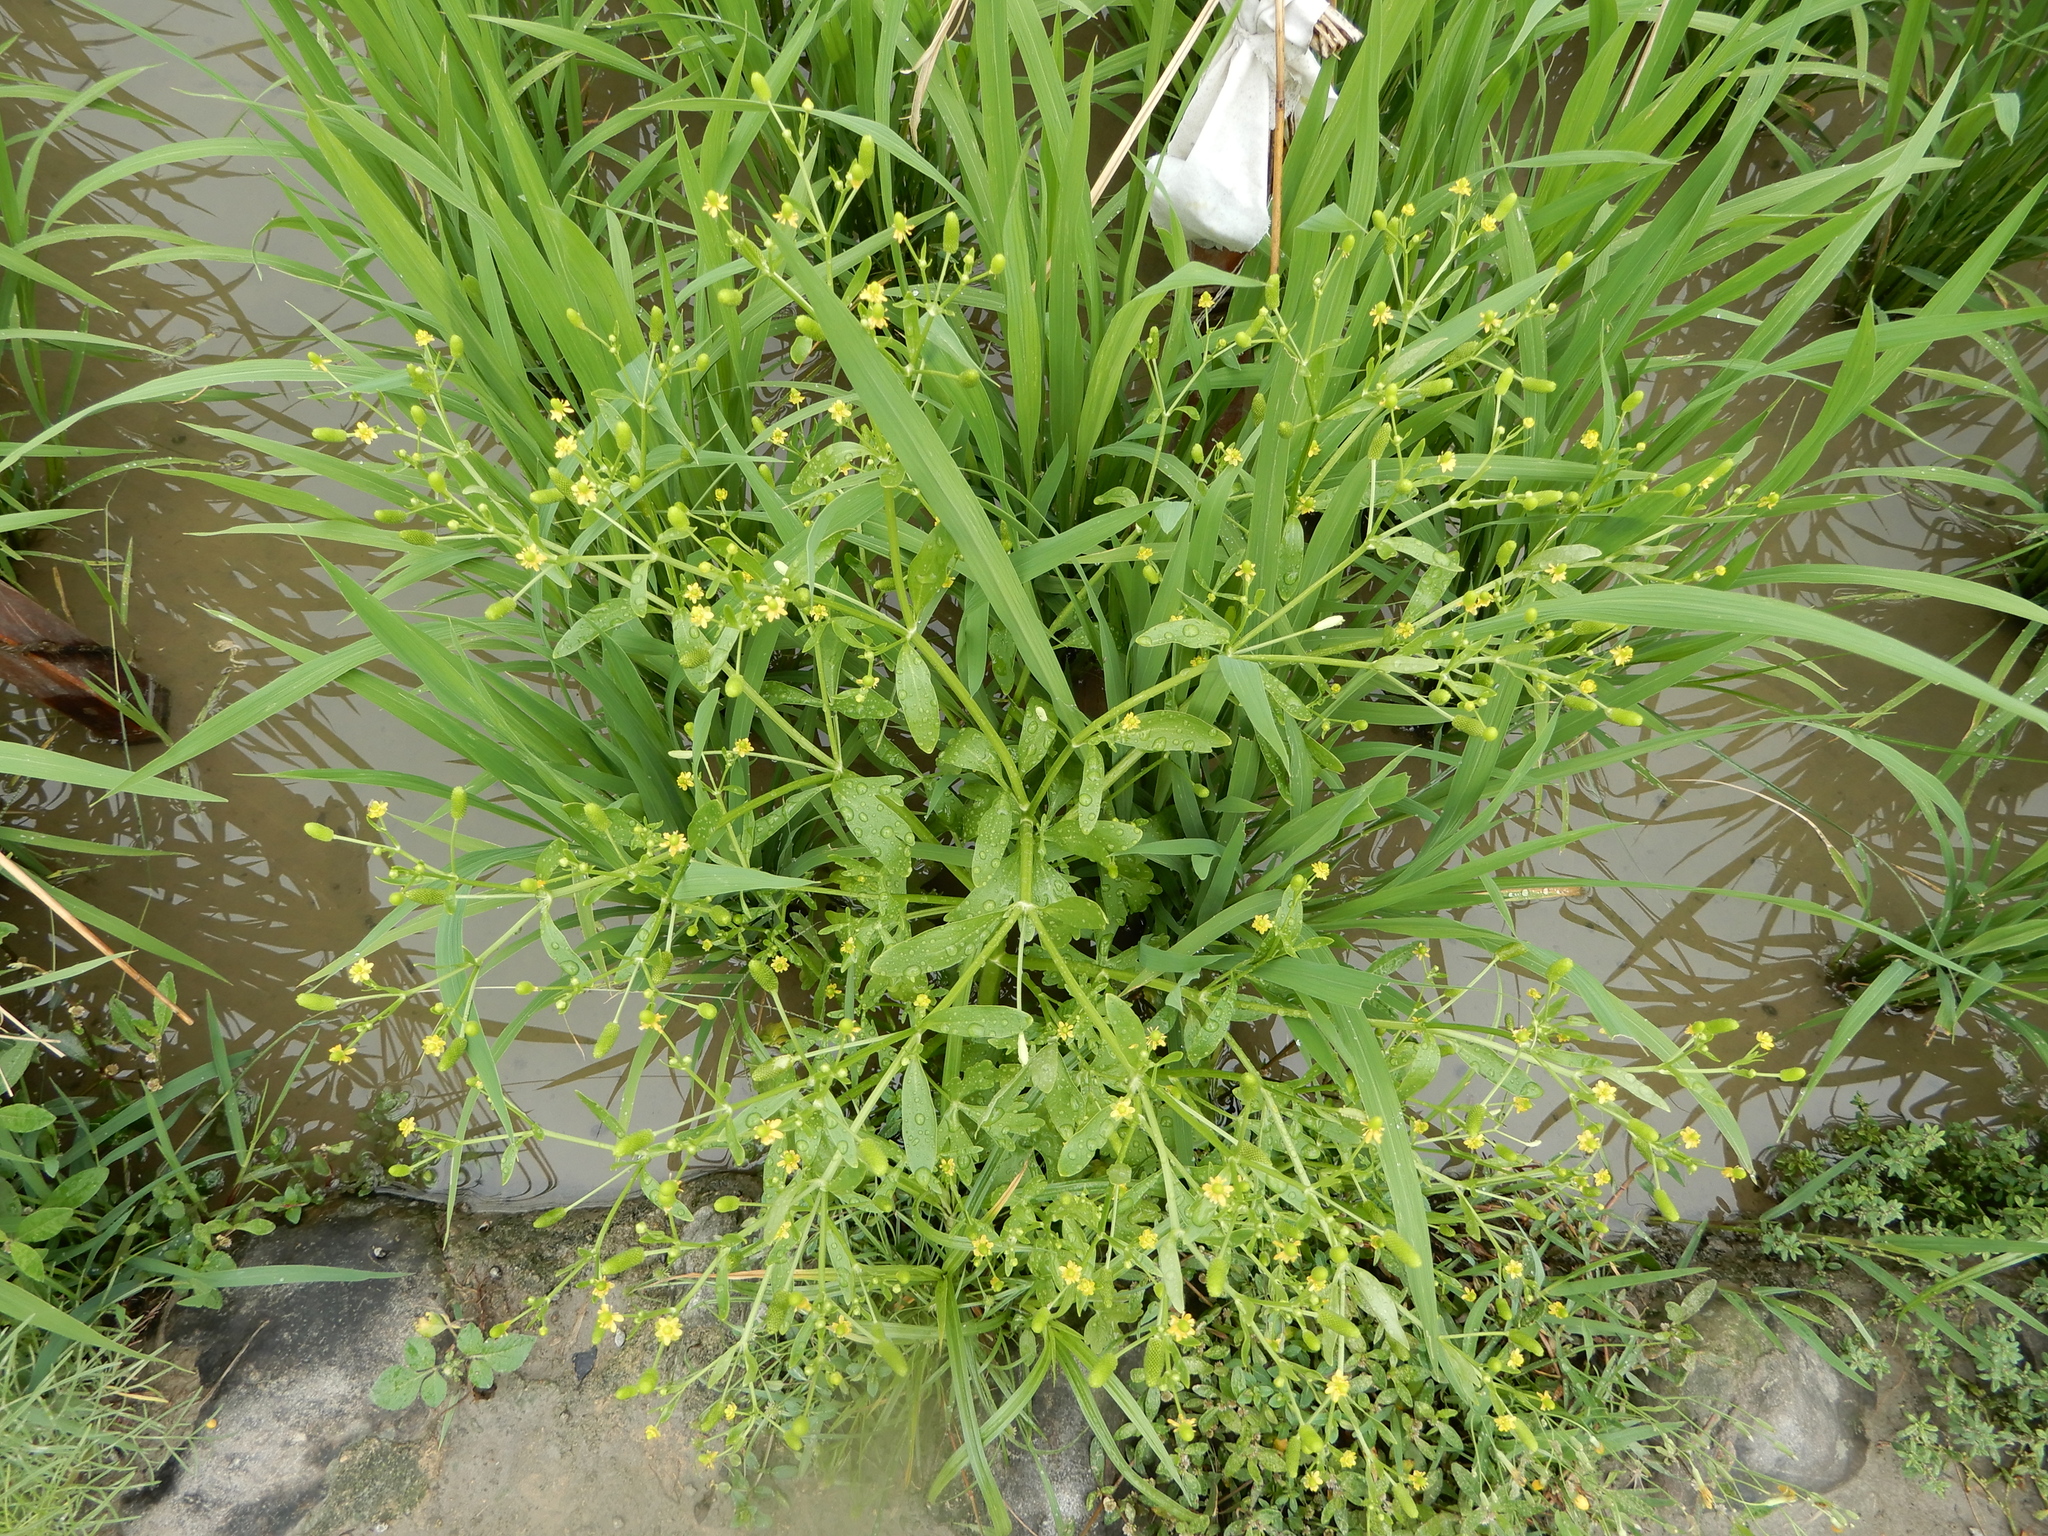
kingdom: Plantae
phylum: Tracheophyta
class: Magnoliopsida
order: Ranunculales
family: Ranunculaceae
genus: Ranunculus
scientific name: Ranunculus sceleratus
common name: Celery-leaved buttercup
